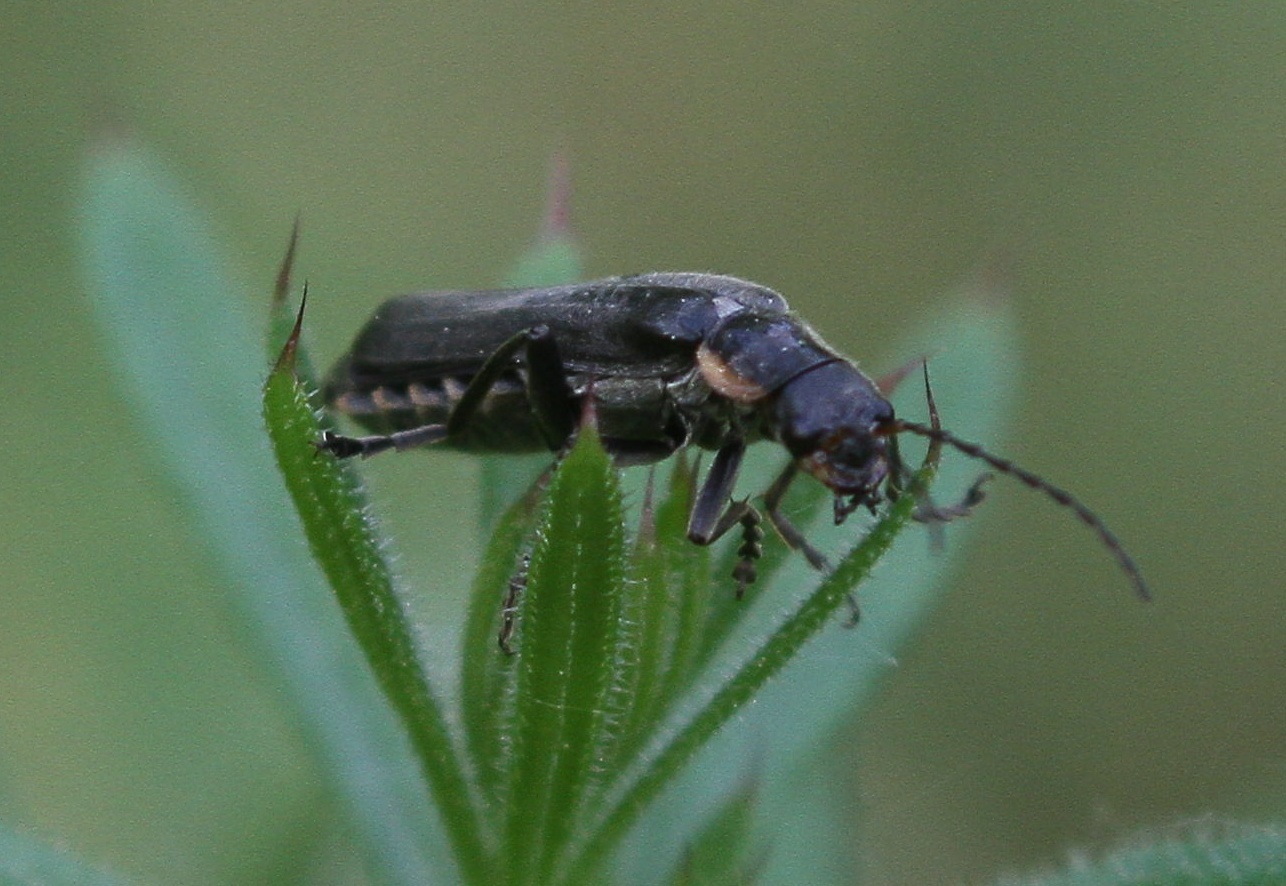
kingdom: Animalia
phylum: Arthropoda
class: Insecta
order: Coleoptera
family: Cantharidae
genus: Cantharis
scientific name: Cantharis obscura
